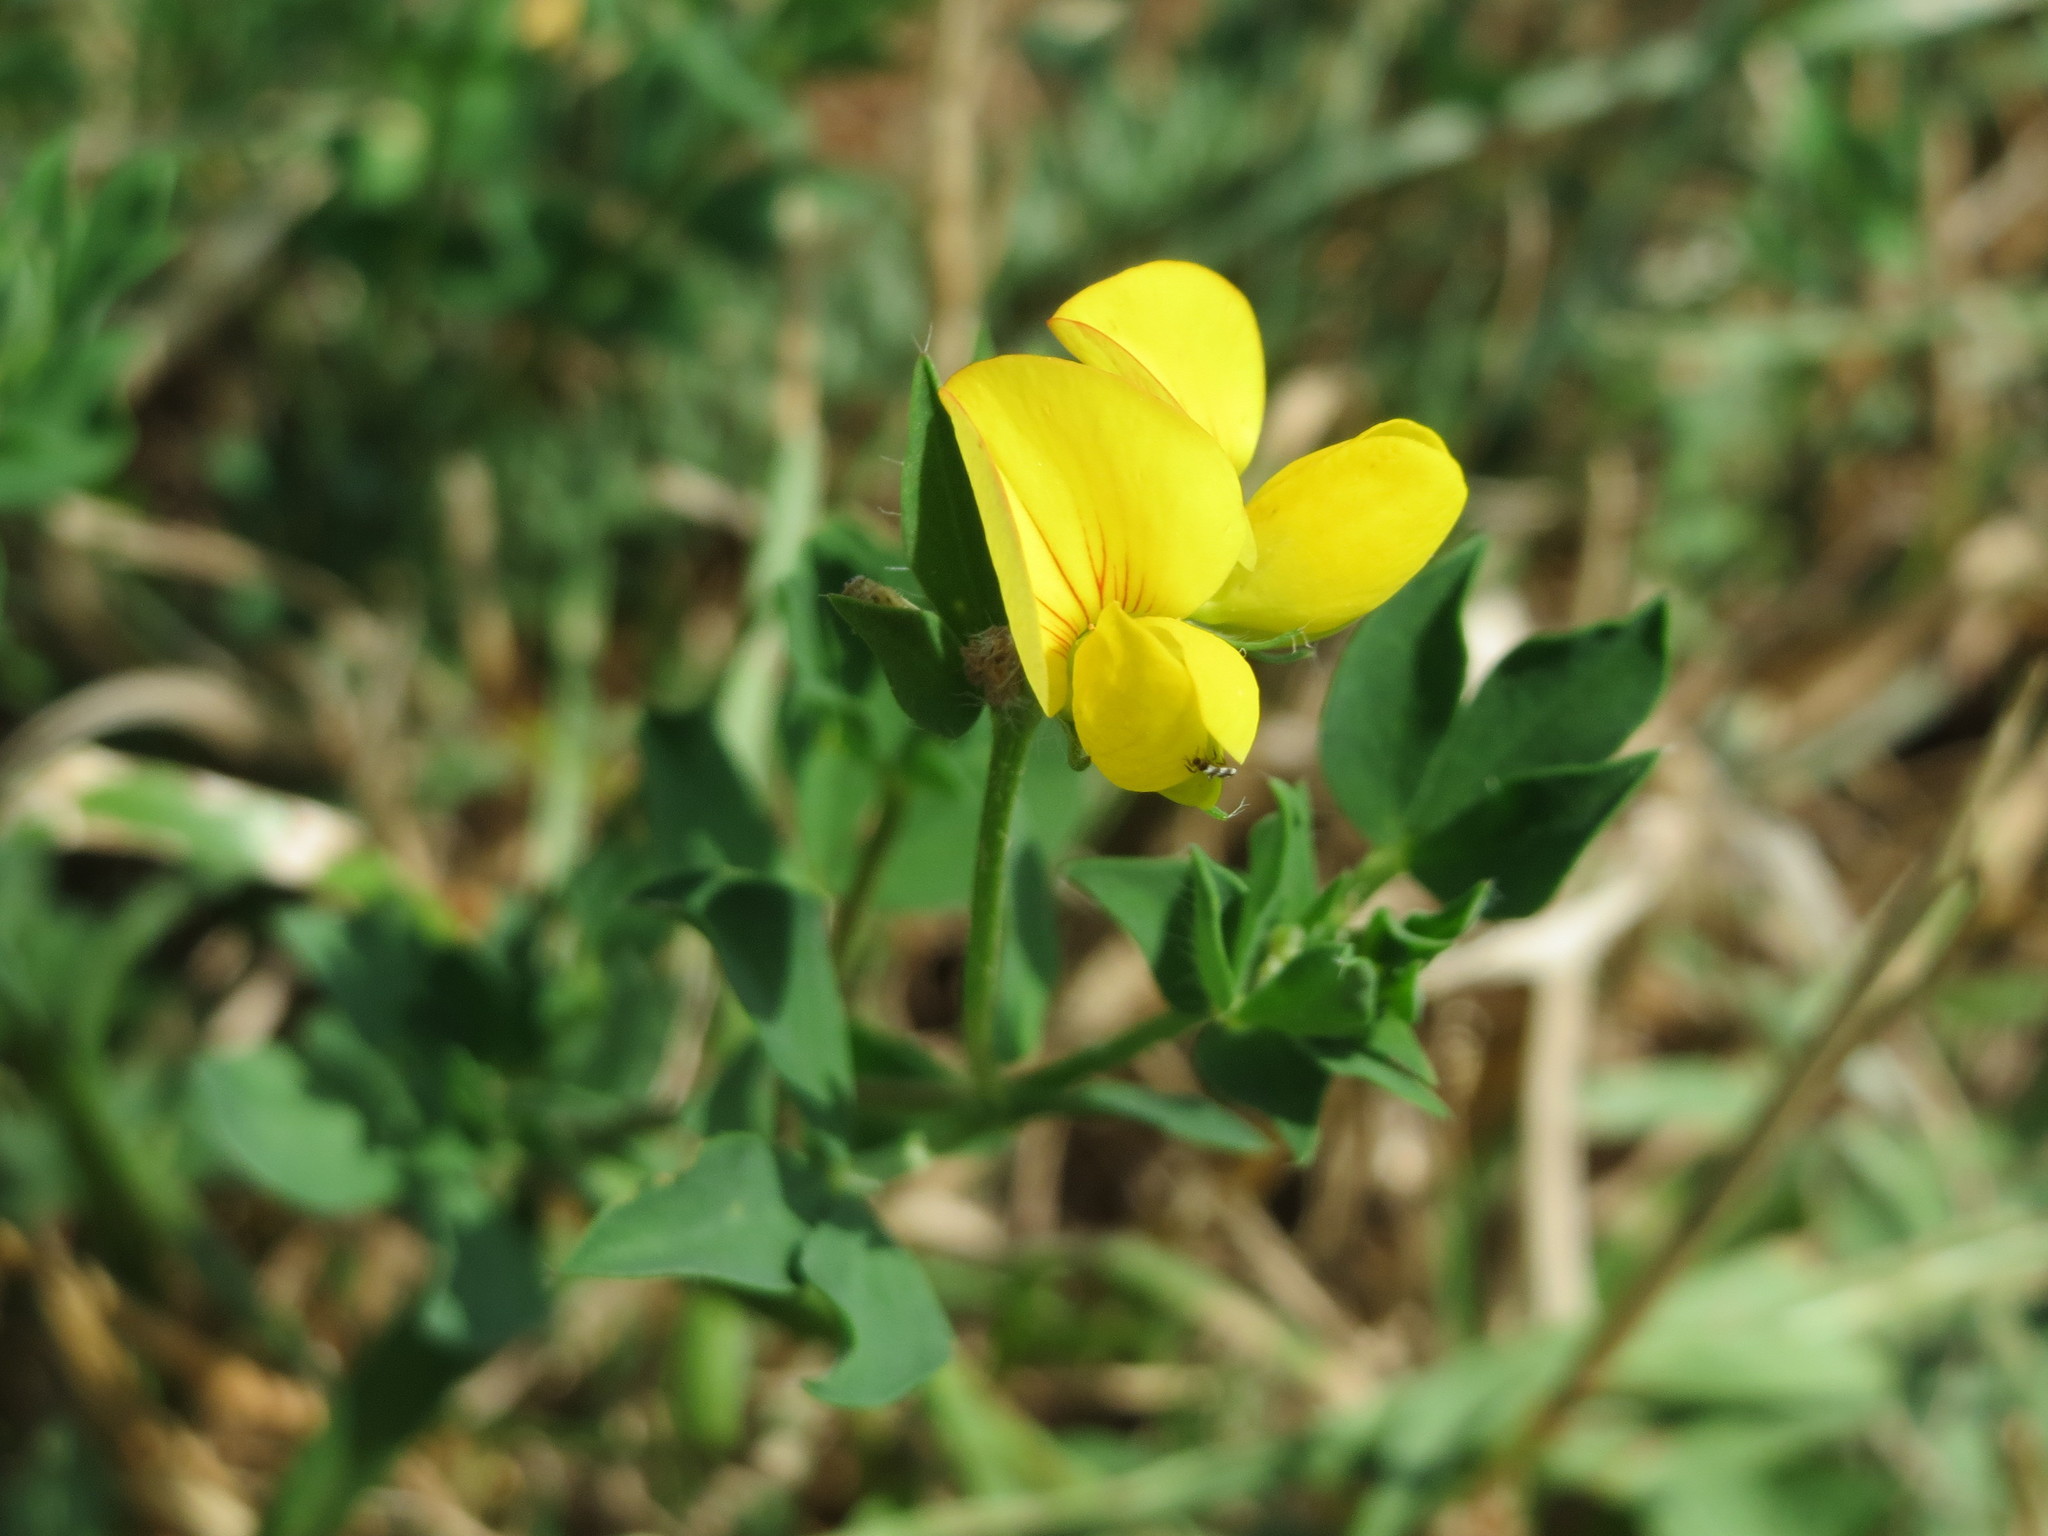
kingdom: Plantae
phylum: Tracheophyta
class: Magnoliopsida
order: Fabales
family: Fabaceae
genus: Lotus
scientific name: Lotus corniculatus
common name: Common bird's-foot-trefoil
